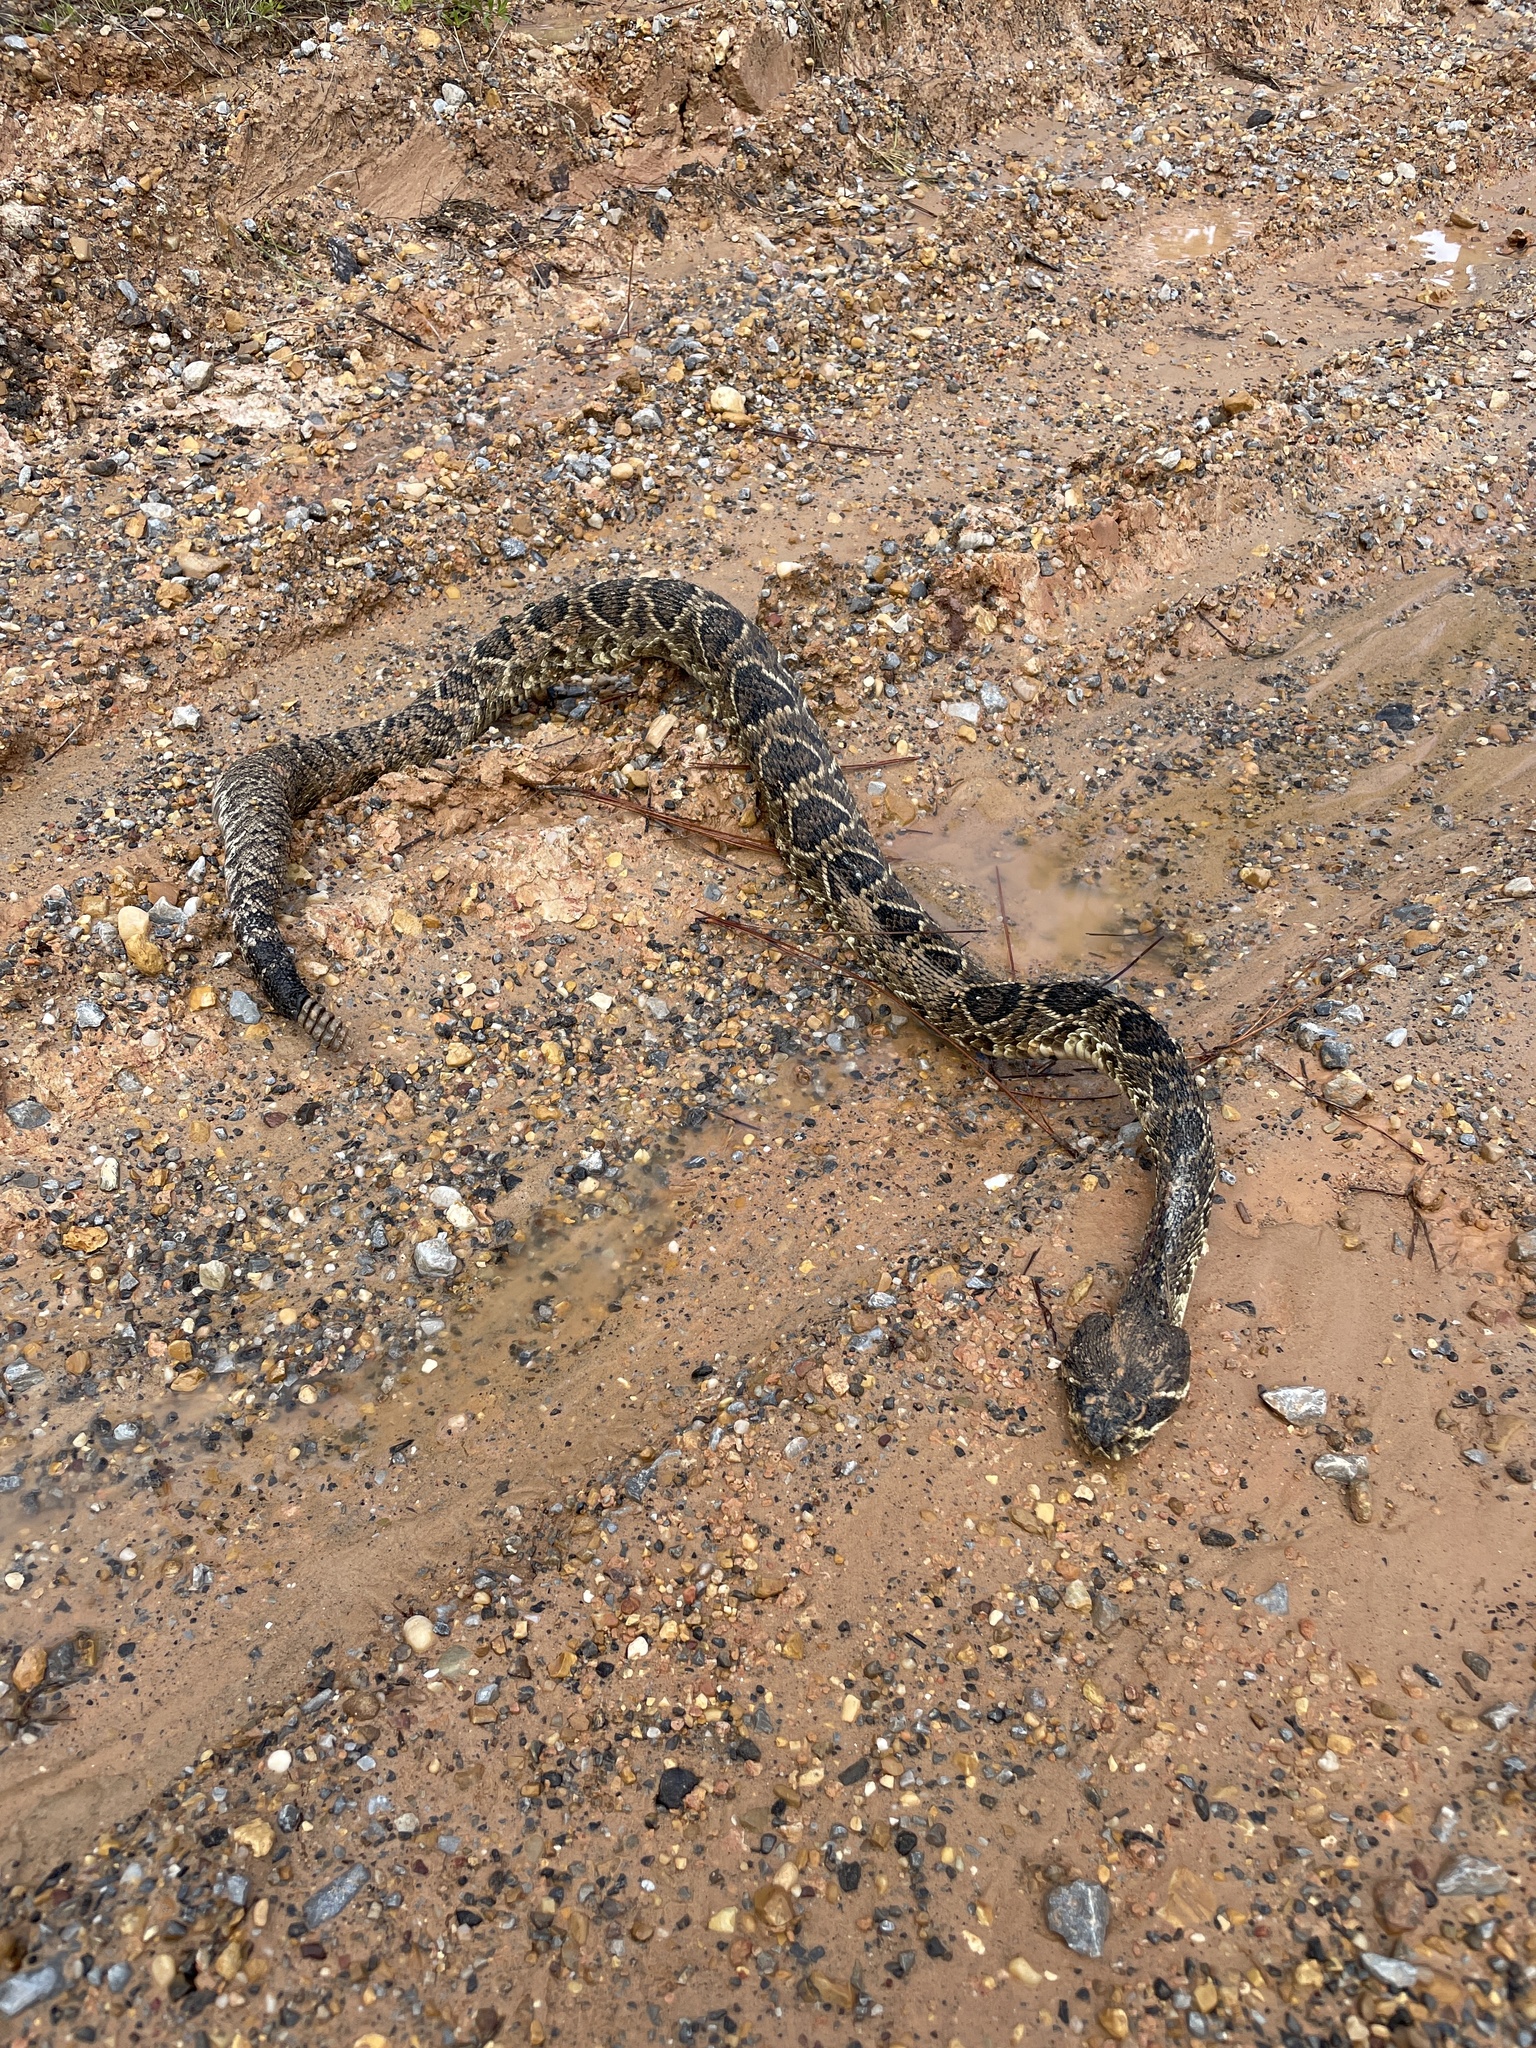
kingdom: Animalia
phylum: Chordata
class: Squamata
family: Viperidae
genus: Crotalus
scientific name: Crotalus adamanteus
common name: Eastern diamondback rattlesnake
